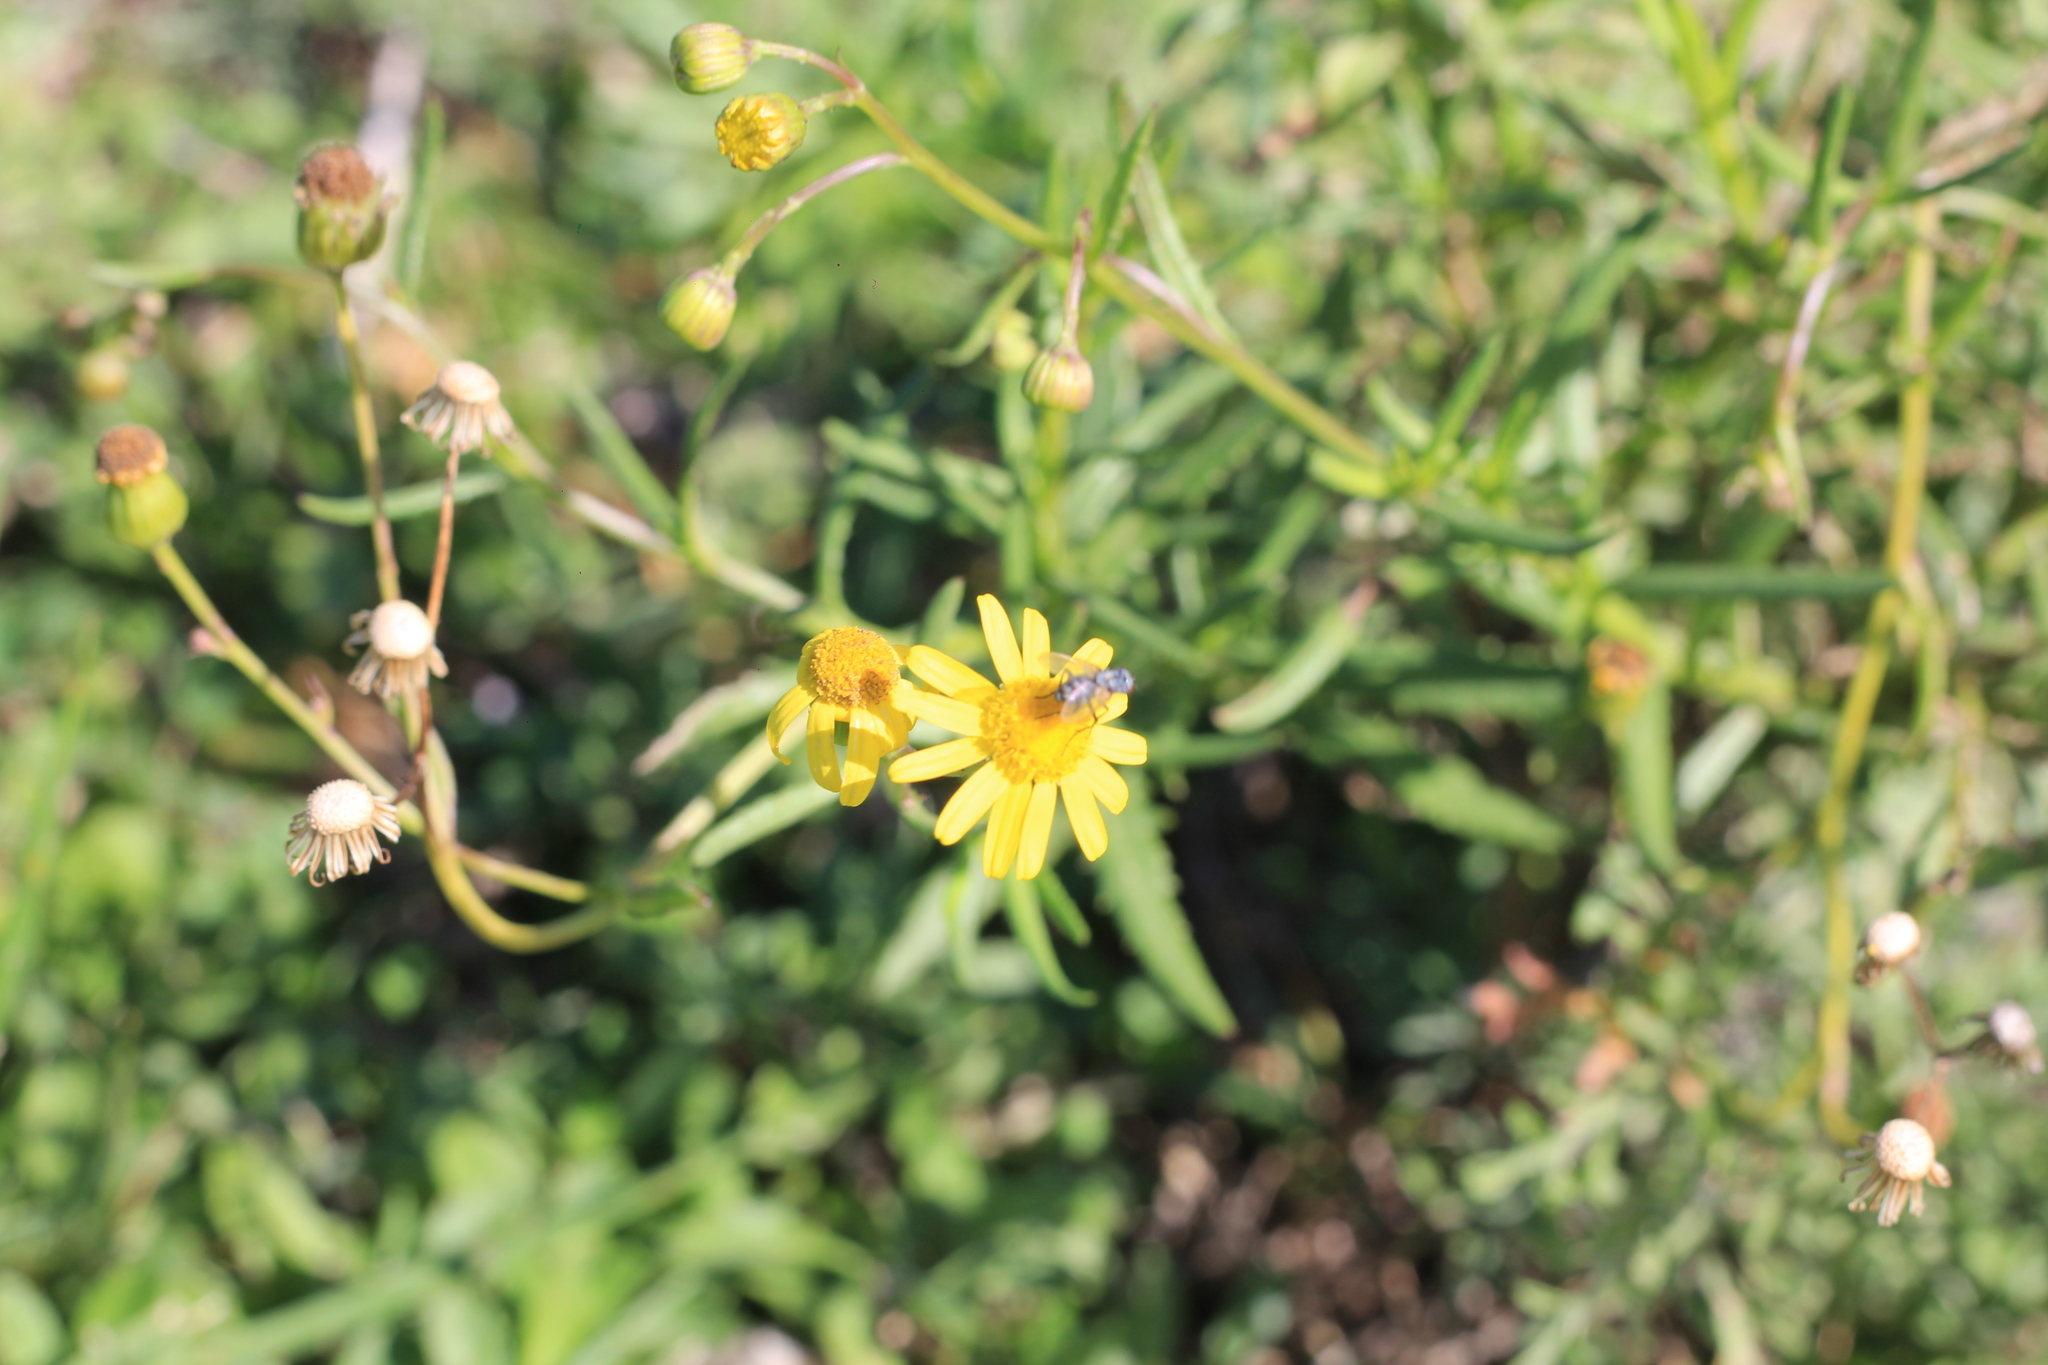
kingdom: Plantae
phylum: Tracheophyta
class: Magnoliopsida
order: Asterales
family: Asteraceae
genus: Senecio
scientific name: Senecio madagascariensis
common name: Madagascar ragwort
